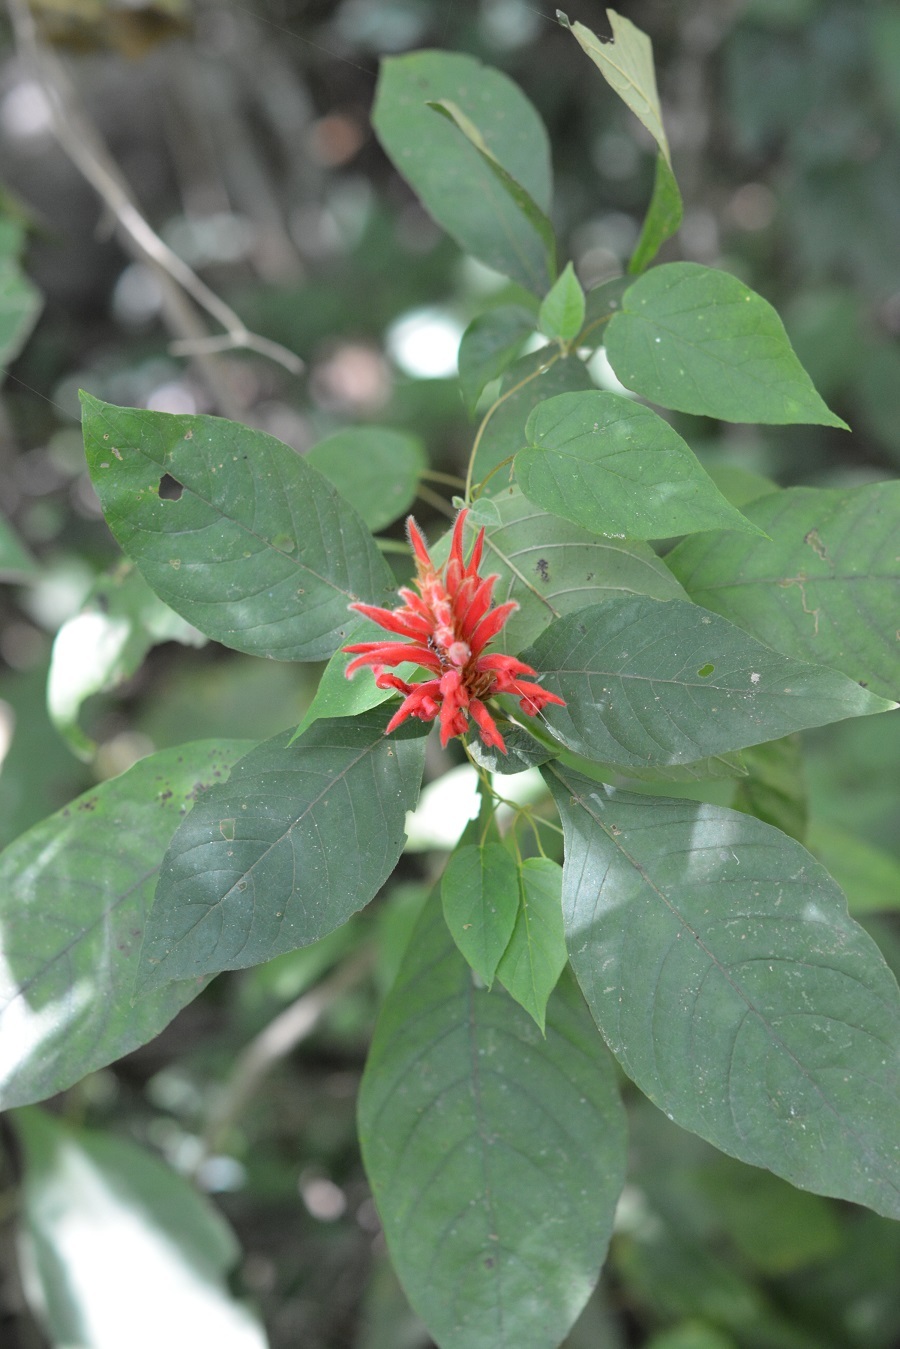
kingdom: Plantae
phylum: Tracheophyta
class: Magnoliopsida
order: Lamiales
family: Acanthaceae
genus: Aphelandra
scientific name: Aphelandra scabra
